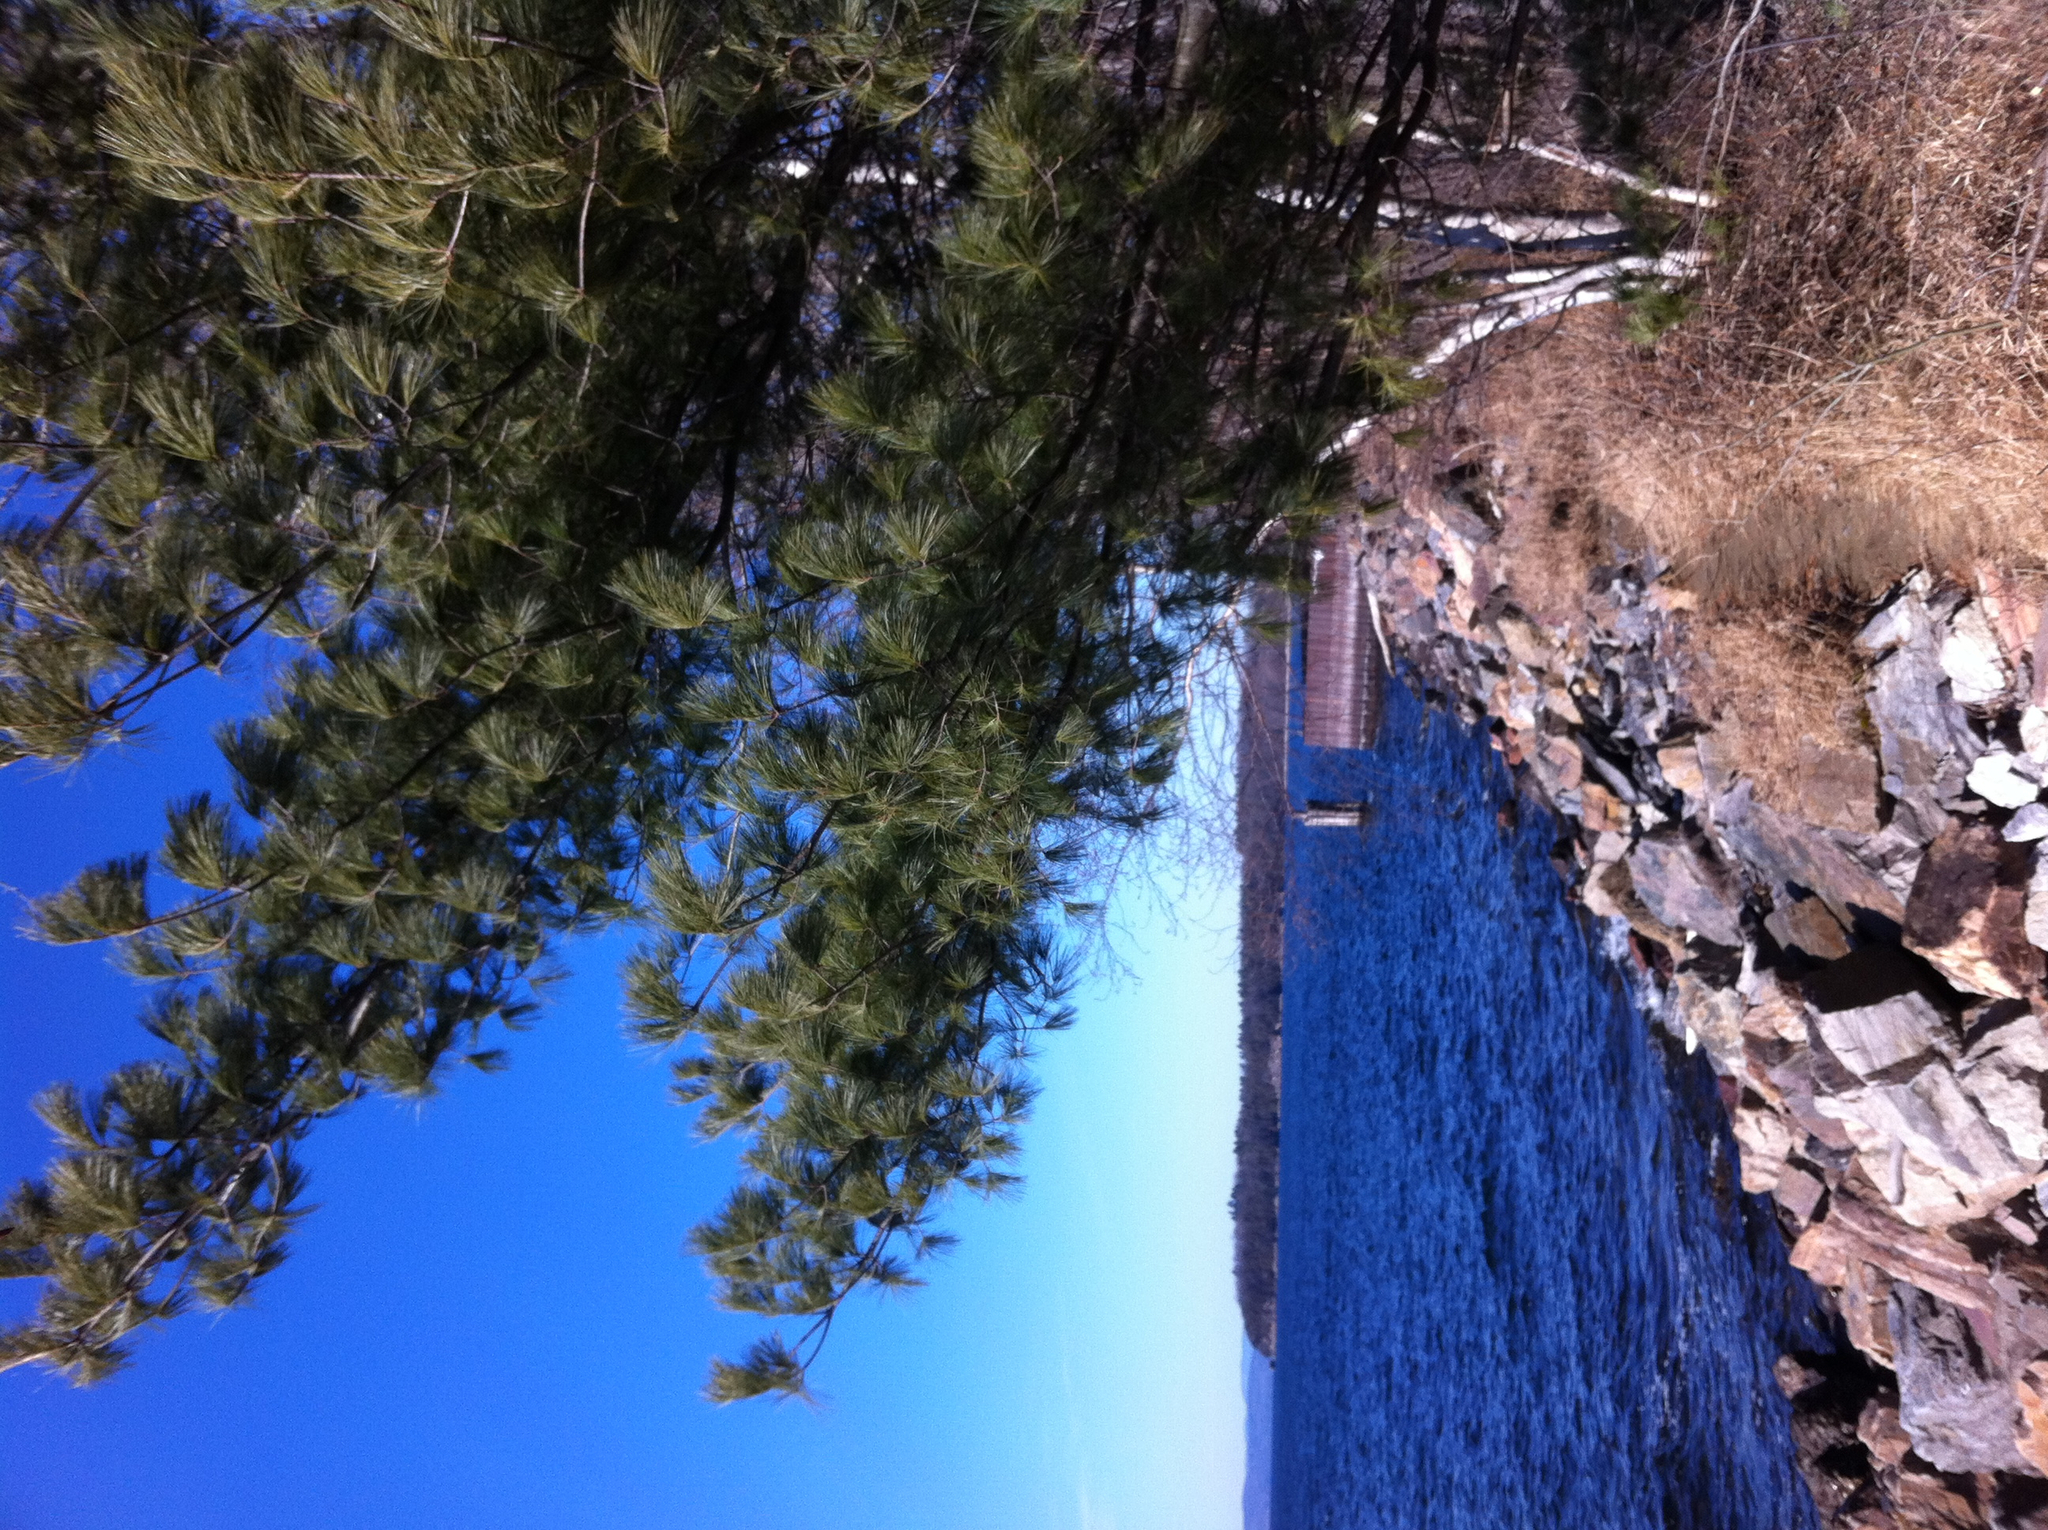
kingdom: Plantae
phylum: Tracheophyta
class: Pinopsida
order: Pinales
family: Pinaceae
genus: Pinus
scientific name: Pinus strobus
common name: Weymouth pine
